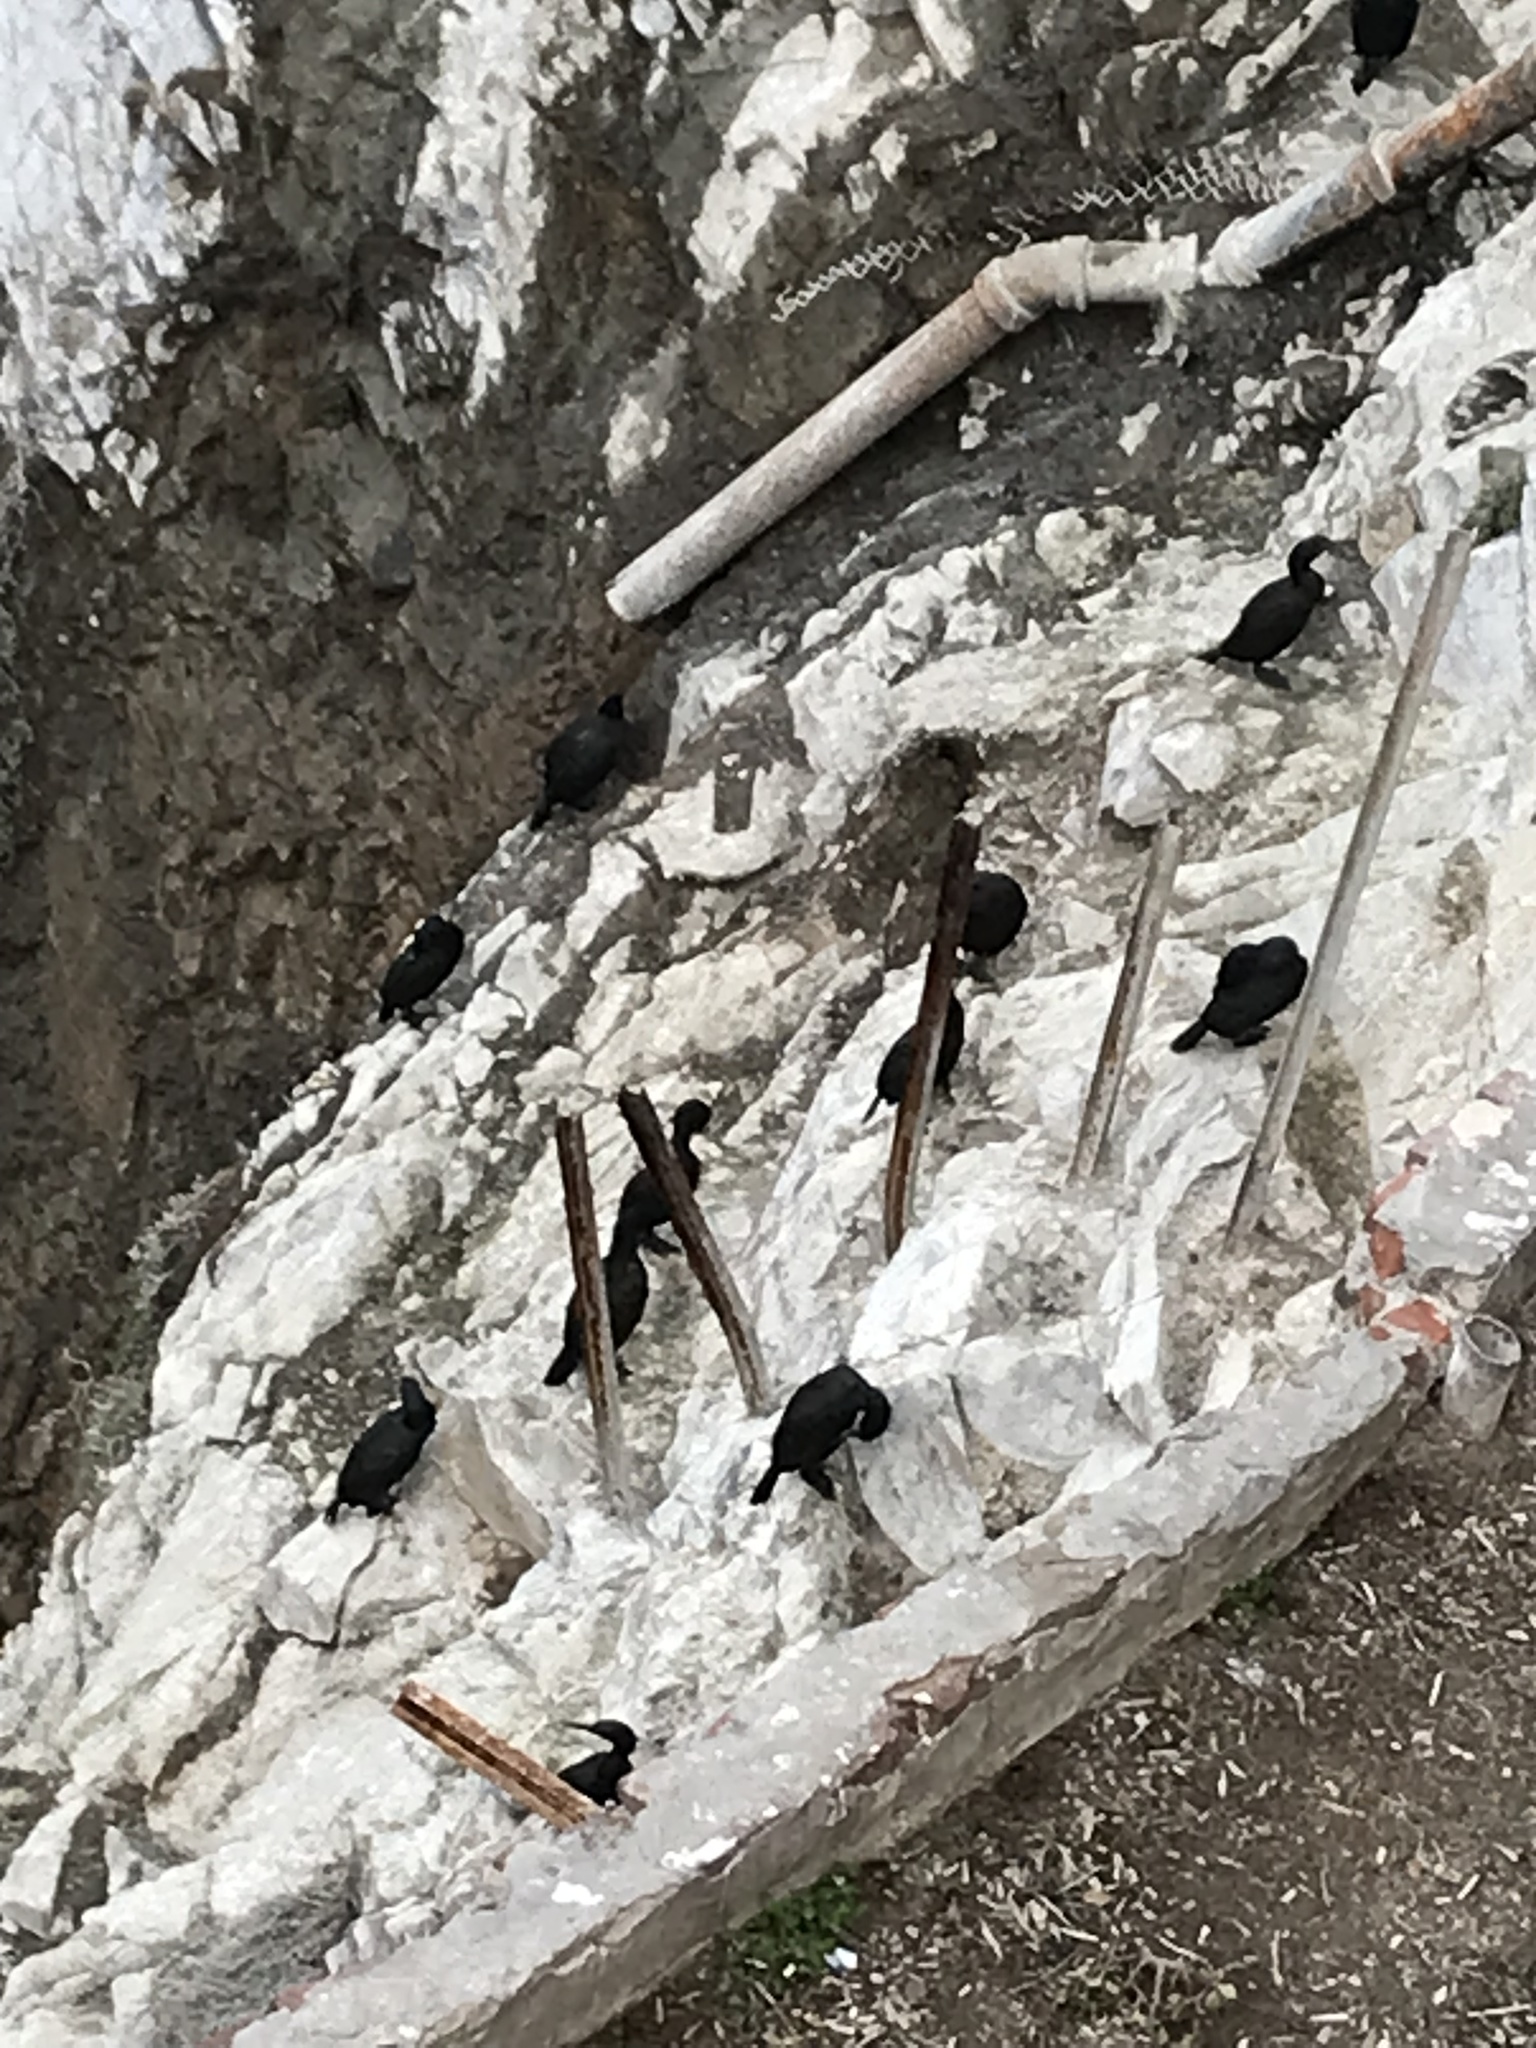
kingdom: Animalia
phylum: Chordata
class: Aves
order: Suliformes
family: Phalacrocoracidae
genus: Urile
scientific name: Urile penicillatus
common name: Brandt's cormorant
